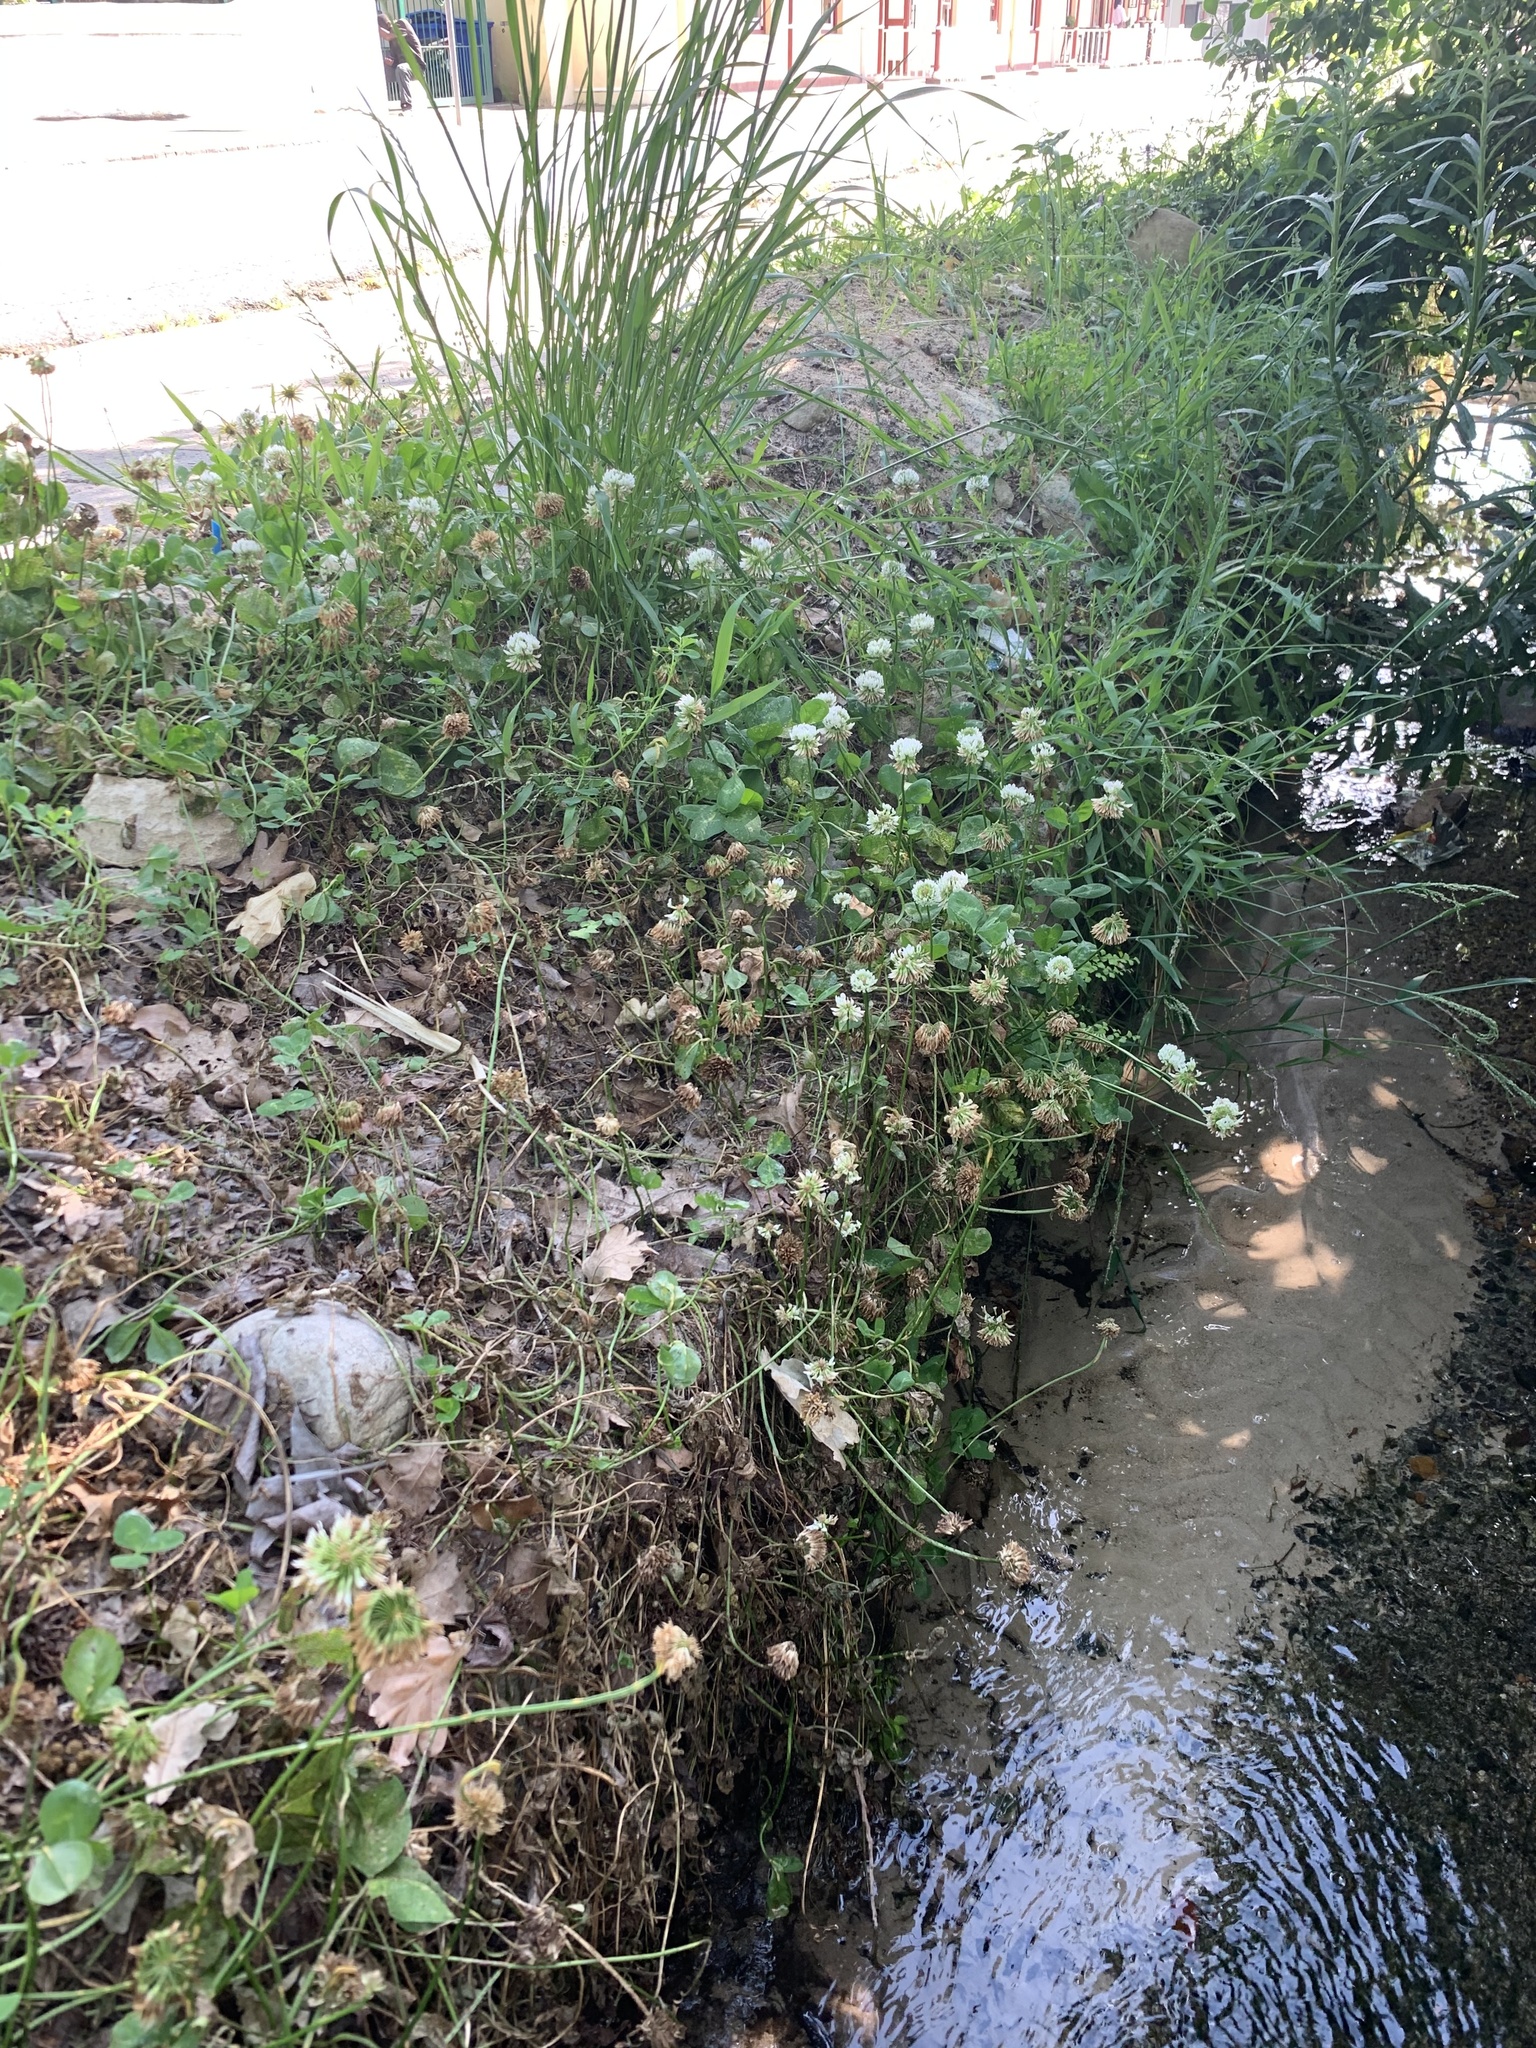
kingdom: Plantae
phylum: Tracheophyta
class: Magnoliopsida
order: Fabales
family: Fabaceae
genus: Trifolium
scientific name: Trifolium repens
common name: White clover
